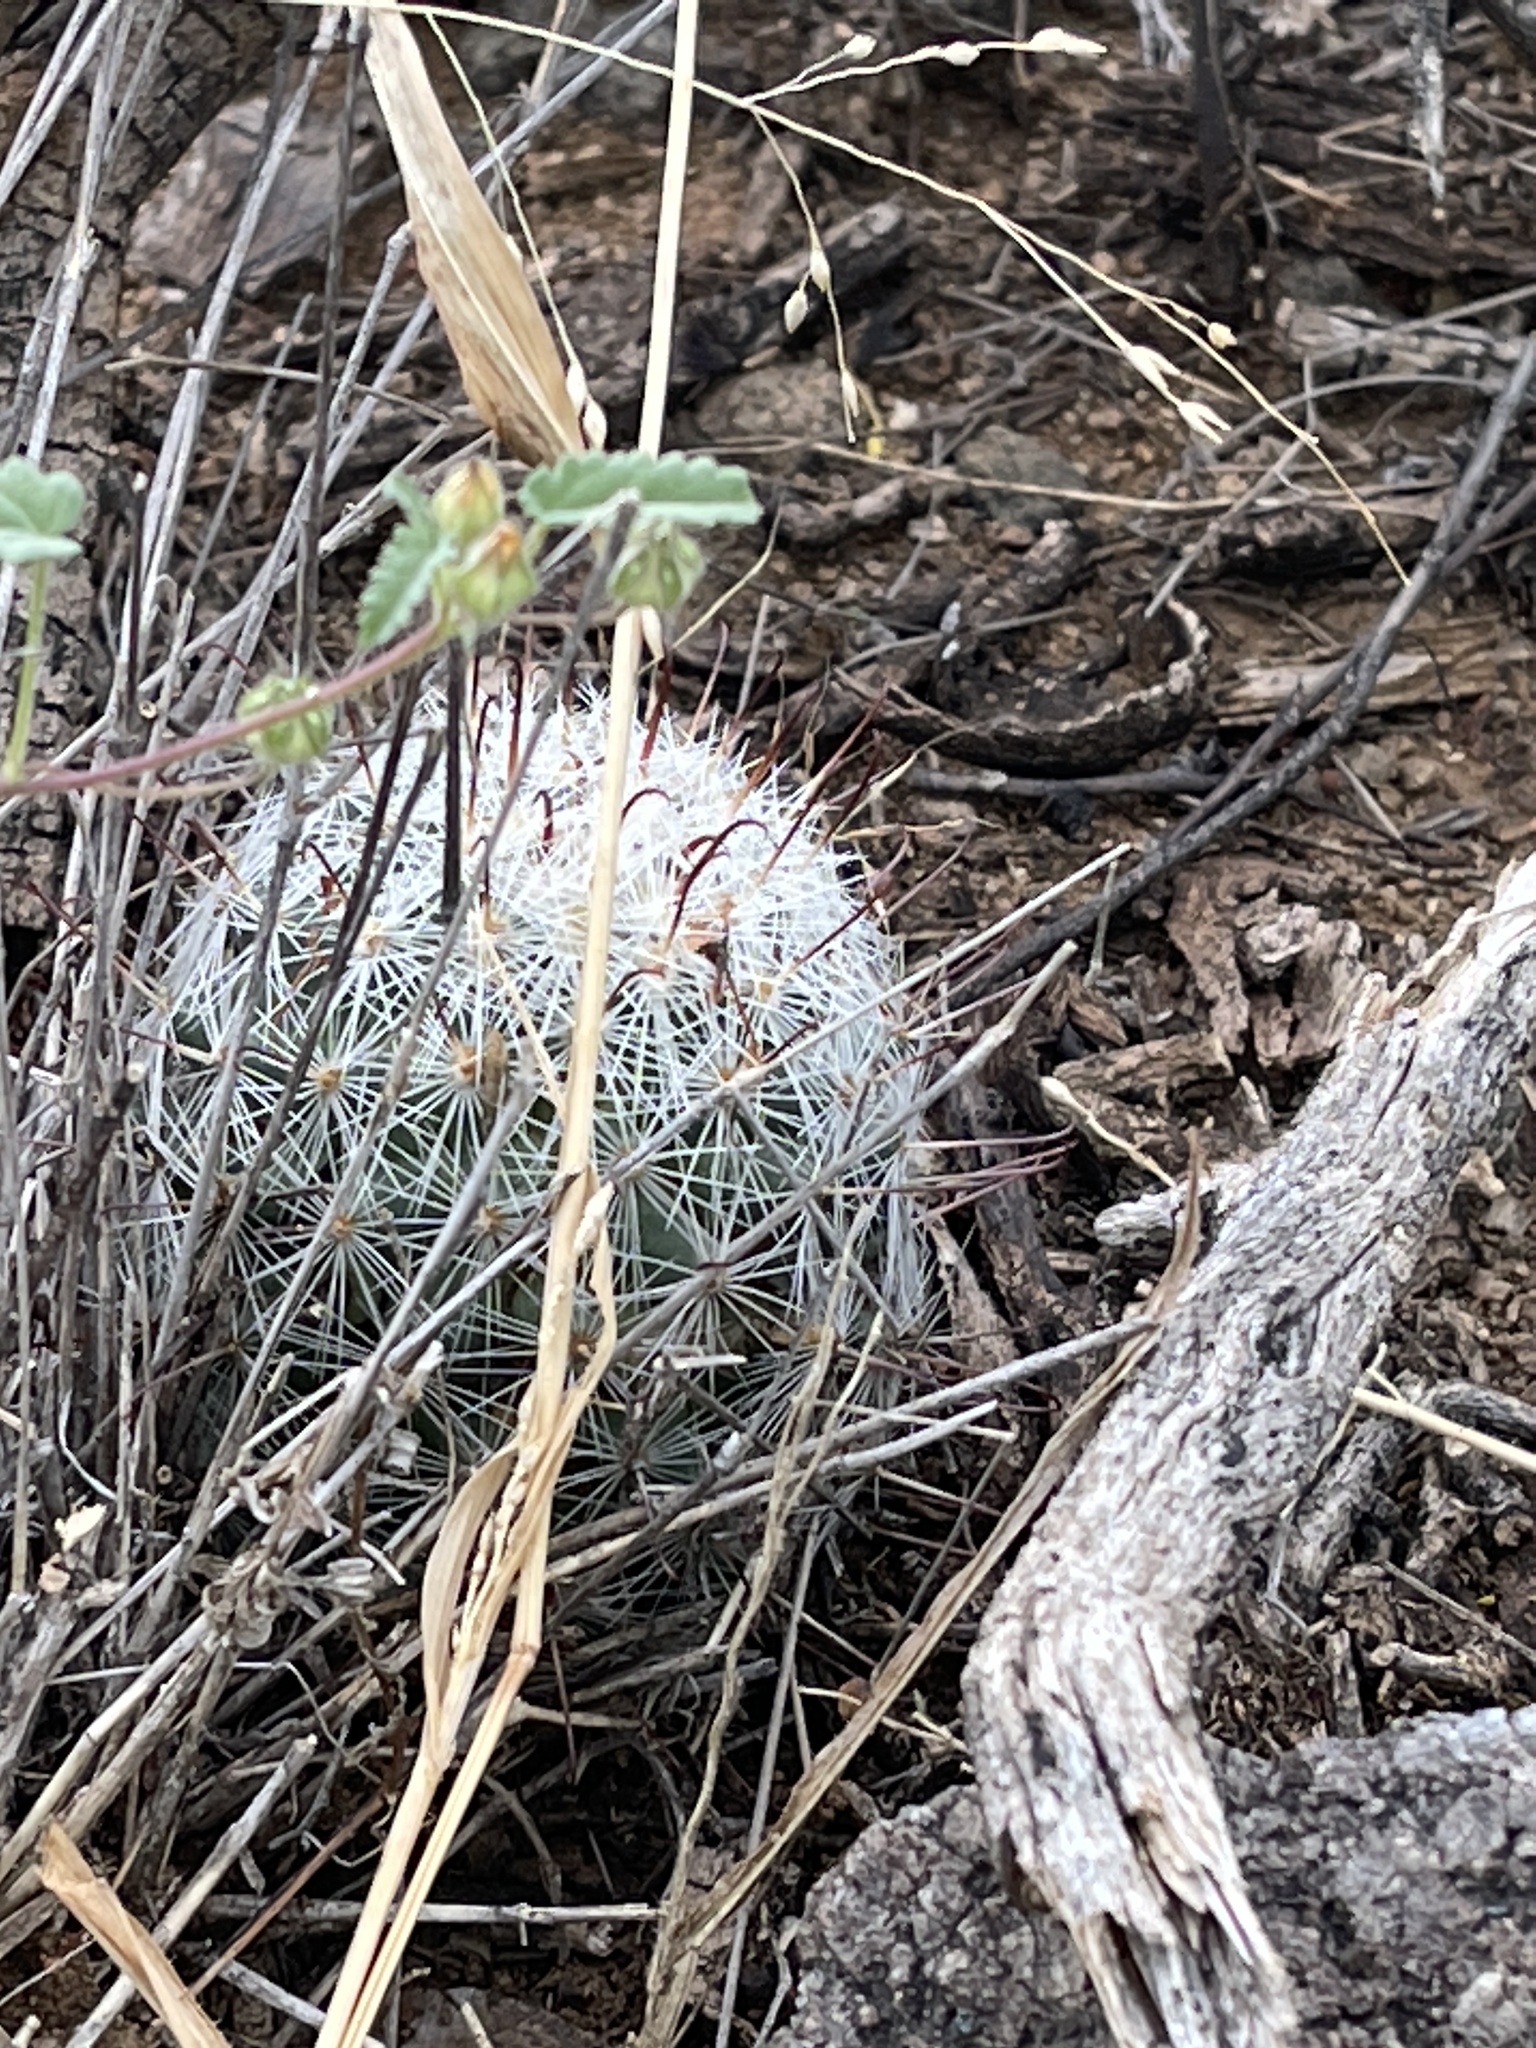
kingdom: Plantae
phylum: Tracheophyta
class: Magnoliopsida
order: Caryophyllales
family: Cactaceae
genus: Cochemiea
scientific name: Cochemiea grahamii
